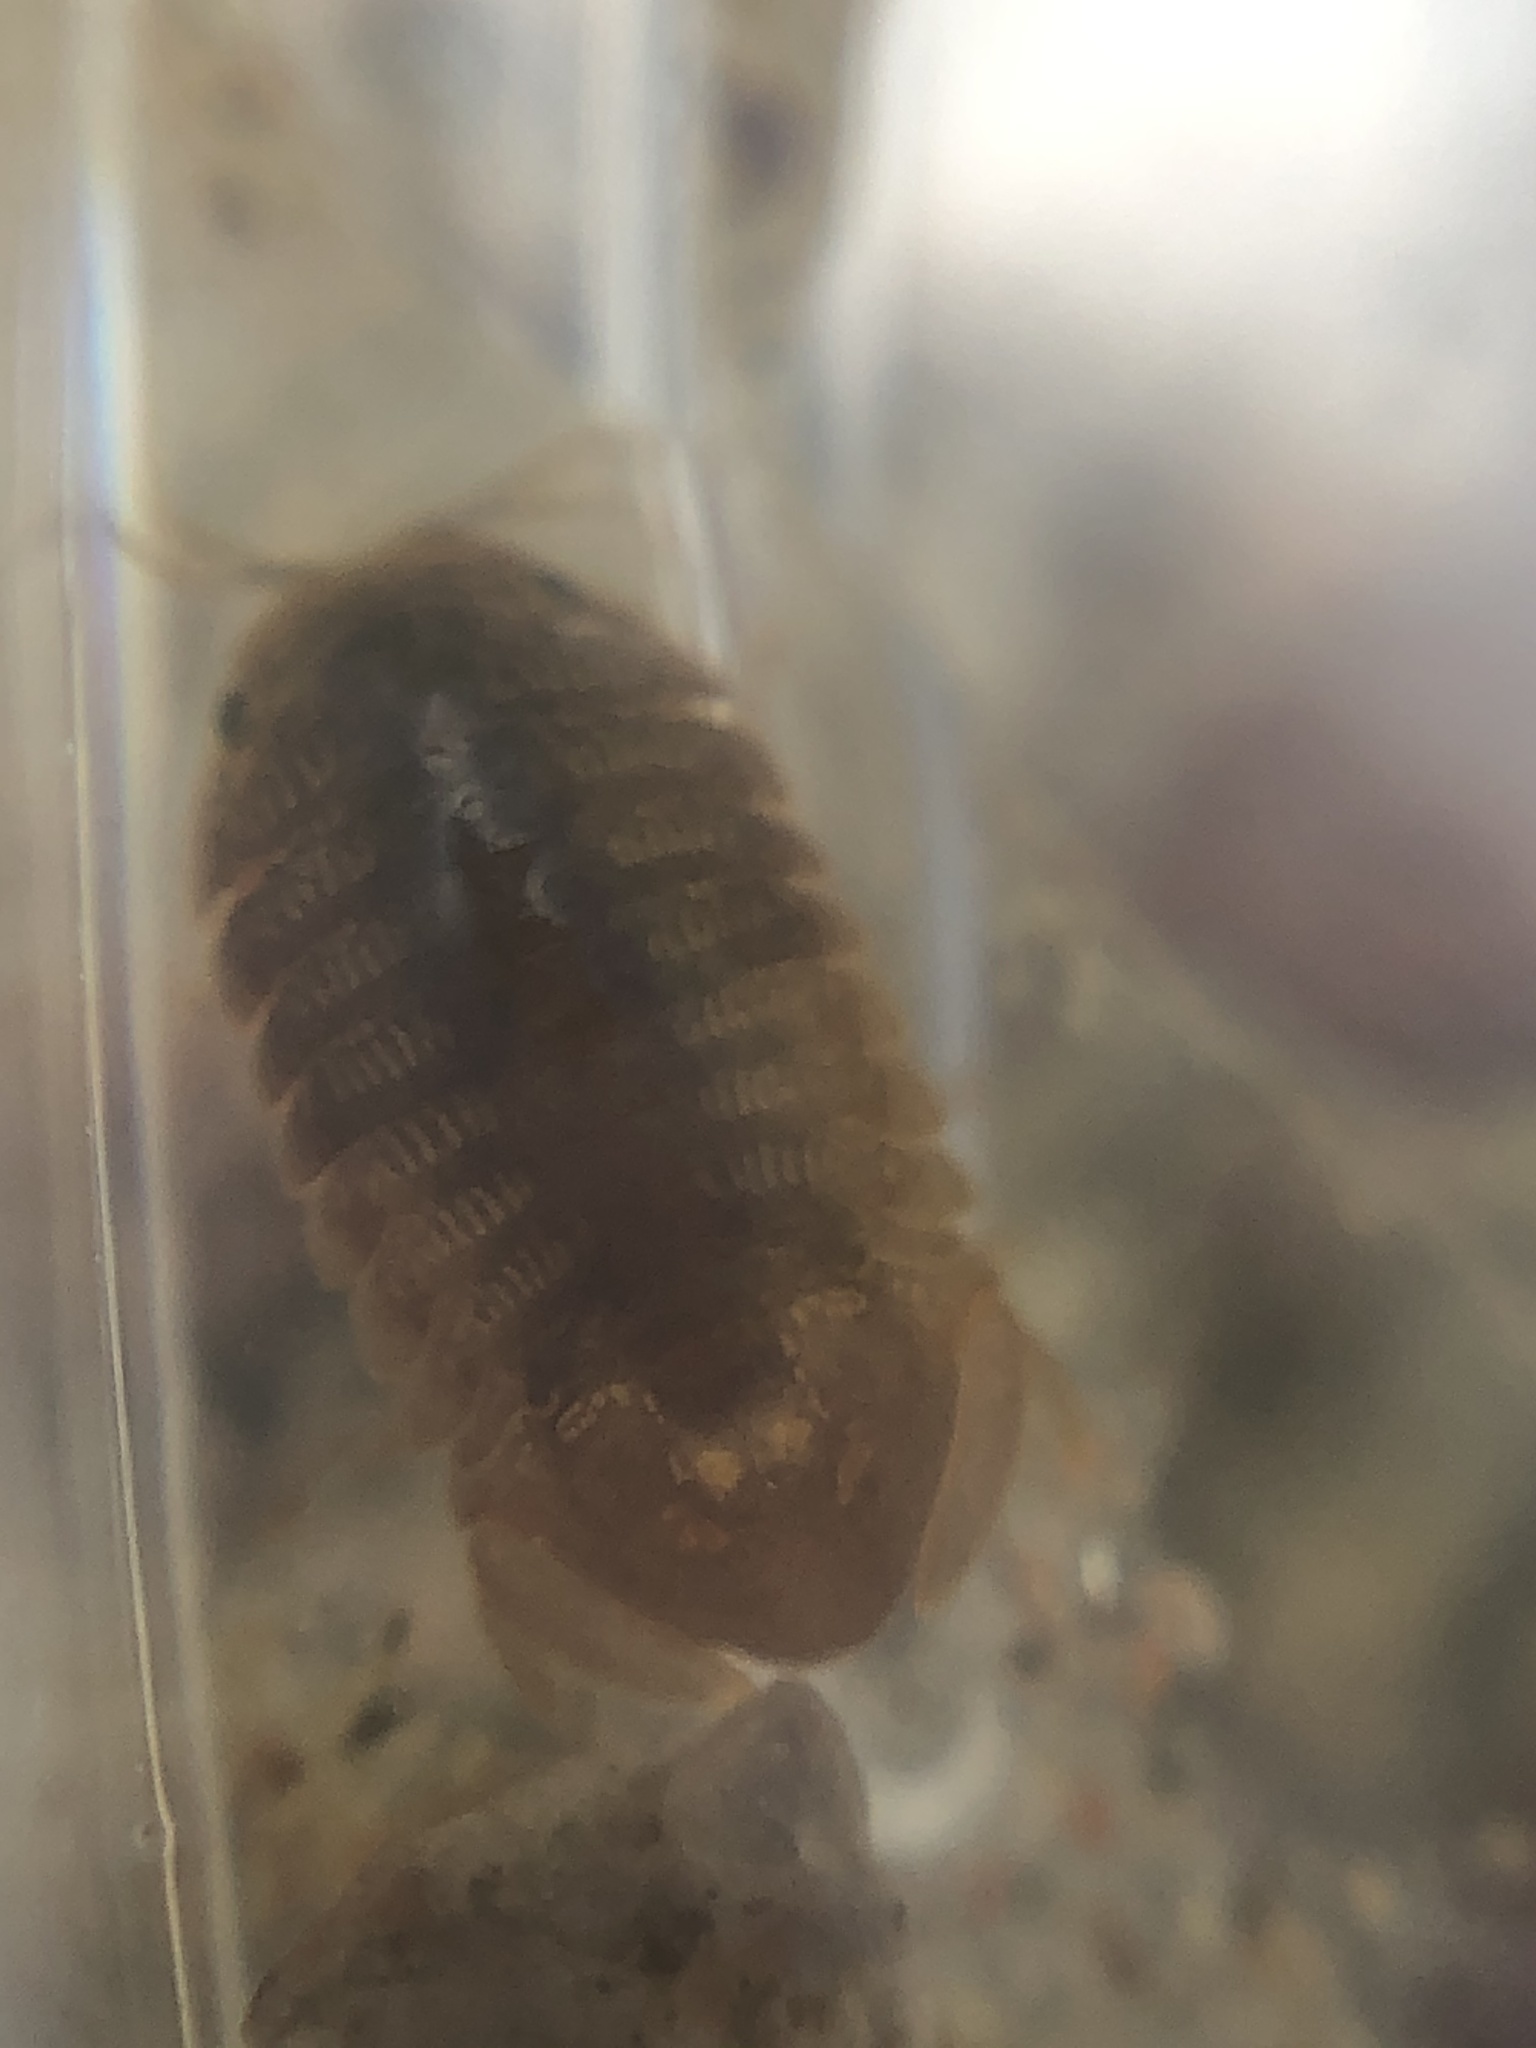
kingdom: Animalia
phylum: Arthropoda
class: Malacostraca
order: Isopoda
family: Sphaeromatidae
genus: Thermosphaeroma
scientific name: Thermosphaeroma thermophilum
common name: Socorro isopod
